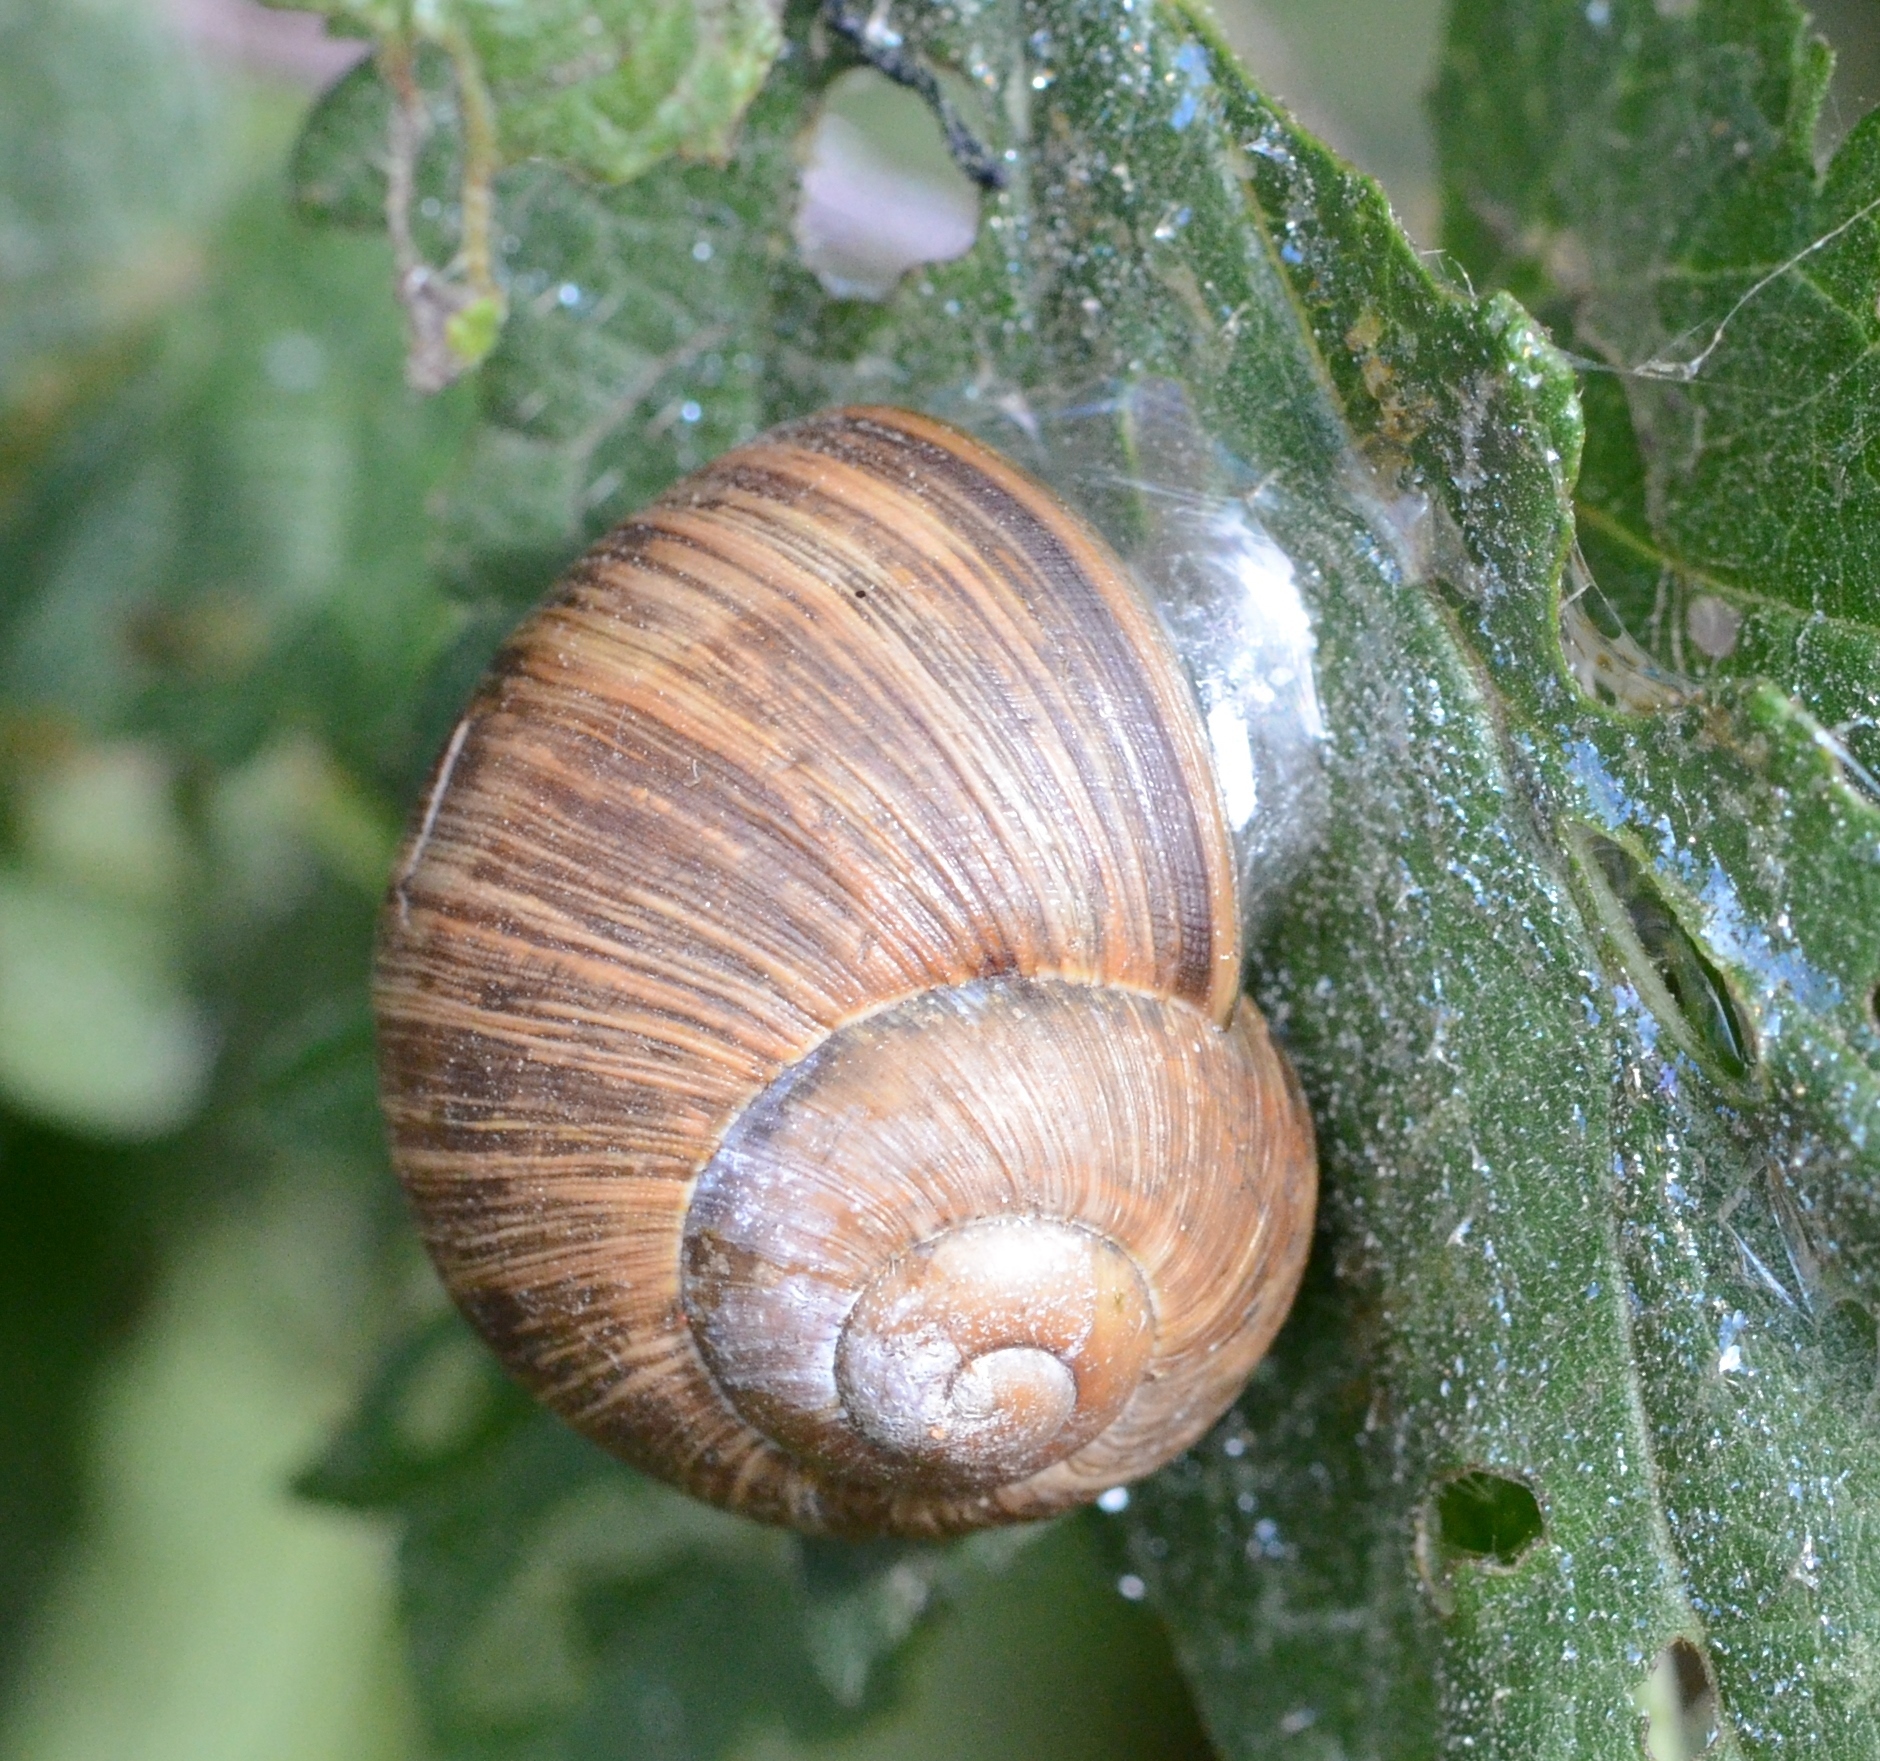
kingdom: Animalia
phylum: Mollusca
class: Gastropoda
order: Stylommatophora
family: Helicidae
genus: Helix
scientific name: Helix pomatia
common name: Roman snail
